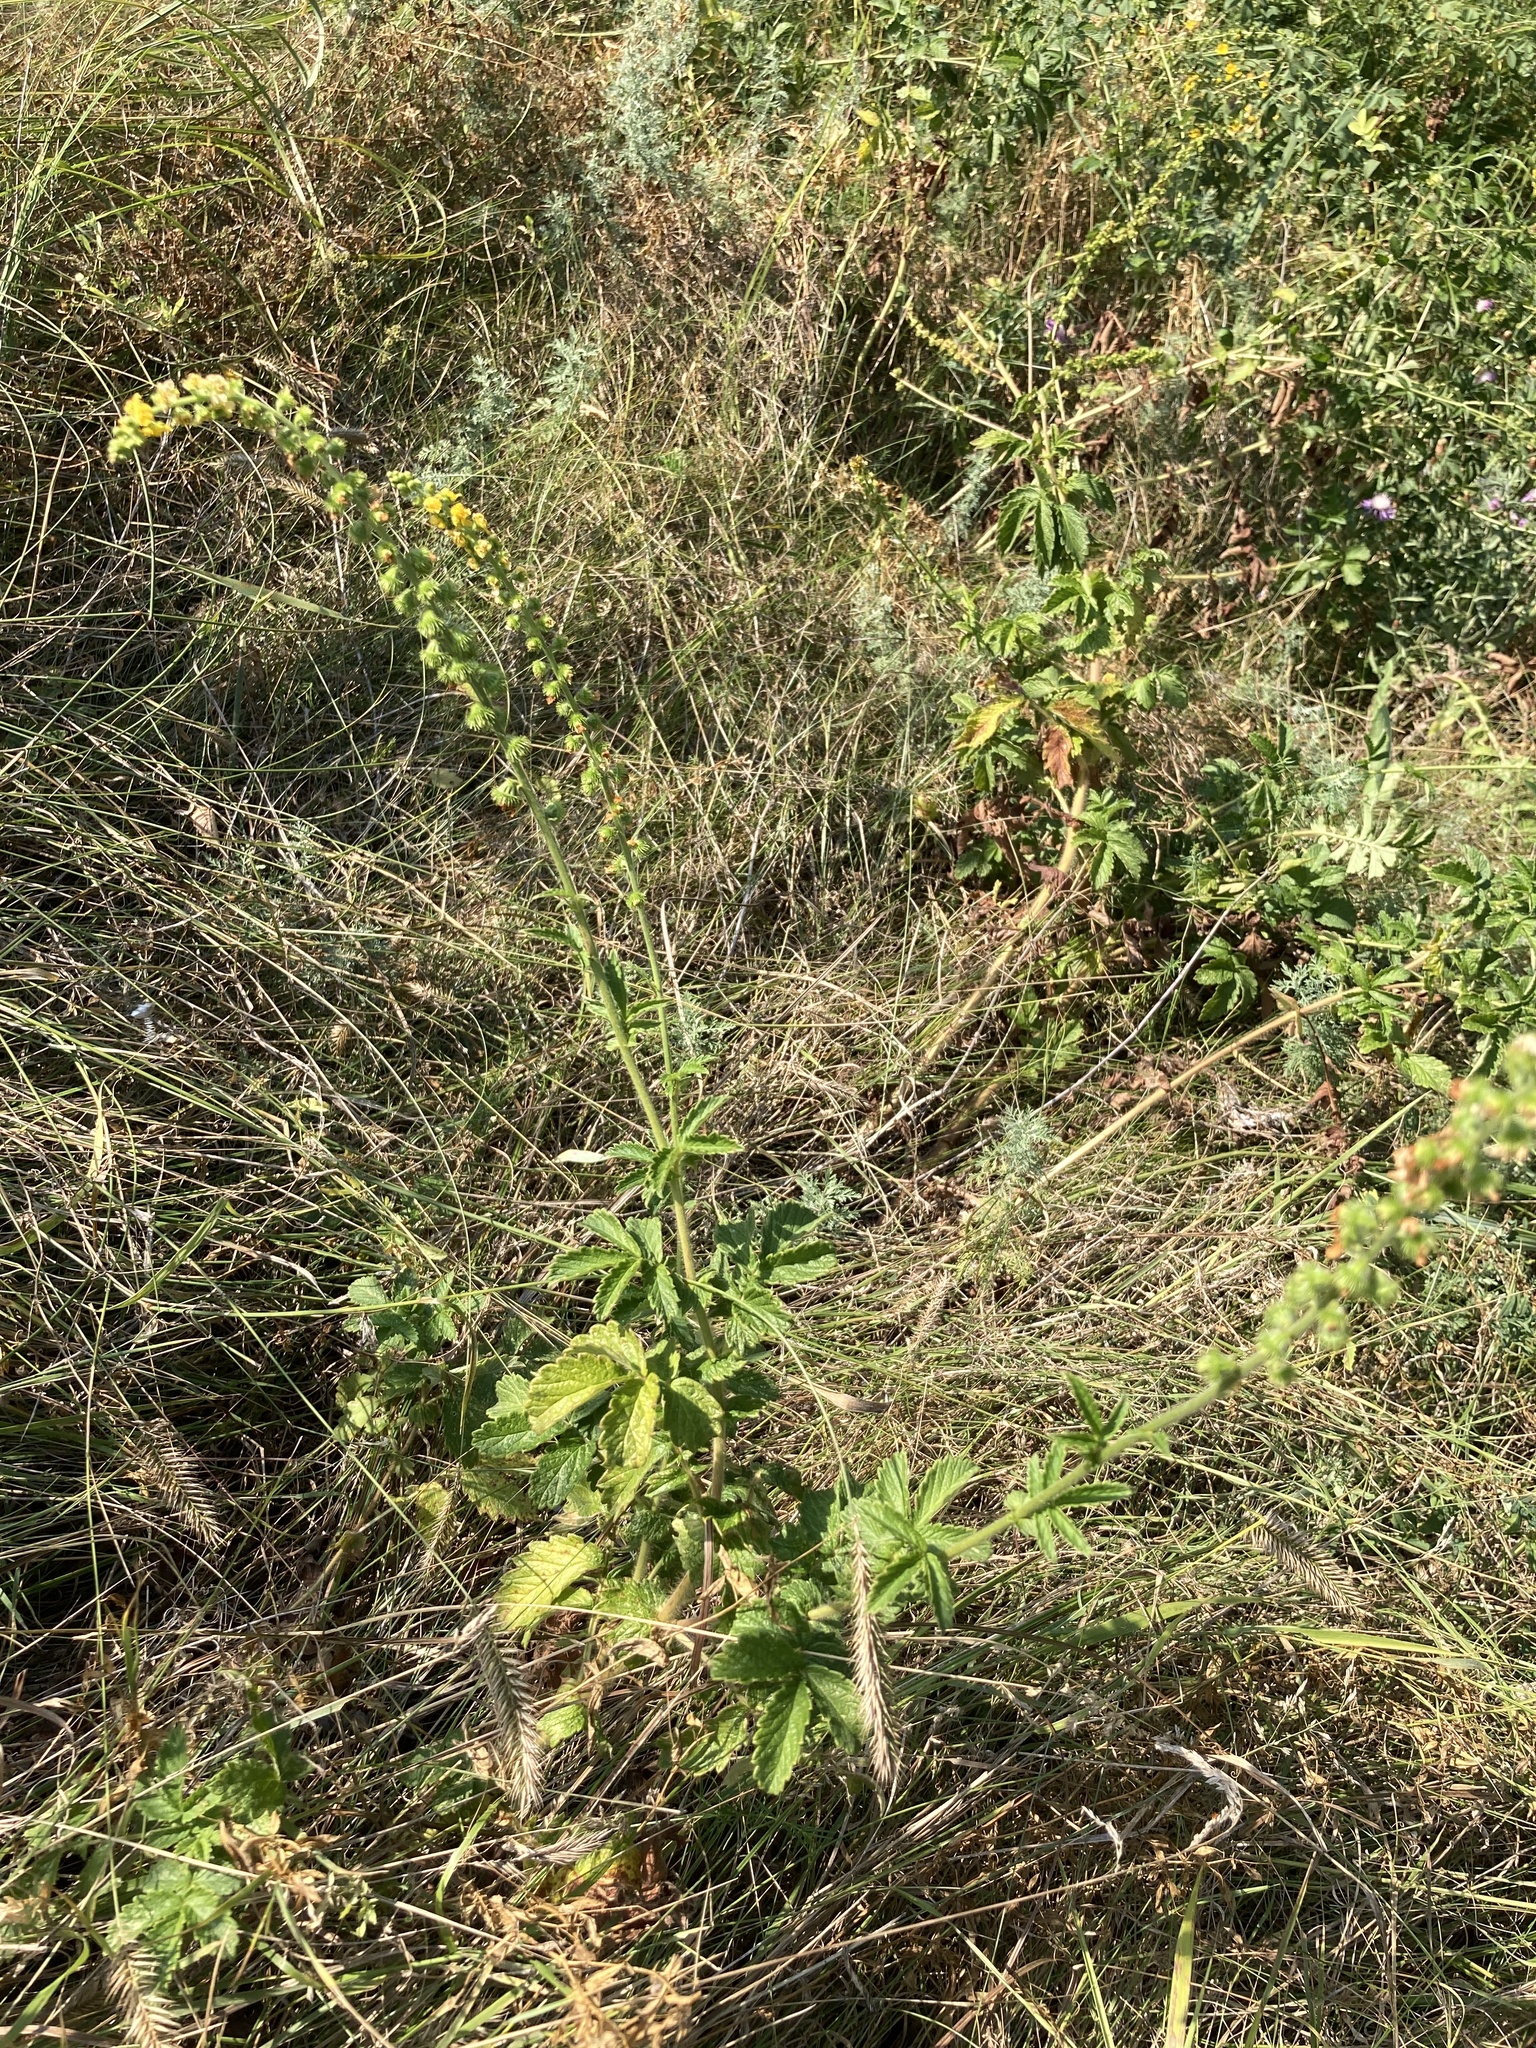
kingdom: Plantae
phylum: Tracheophyta
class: Magnoliopsida
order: Rosales
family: Rosaceae
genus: Agrimonia
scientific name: Agrimonia eupatoria
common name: Agrimony
